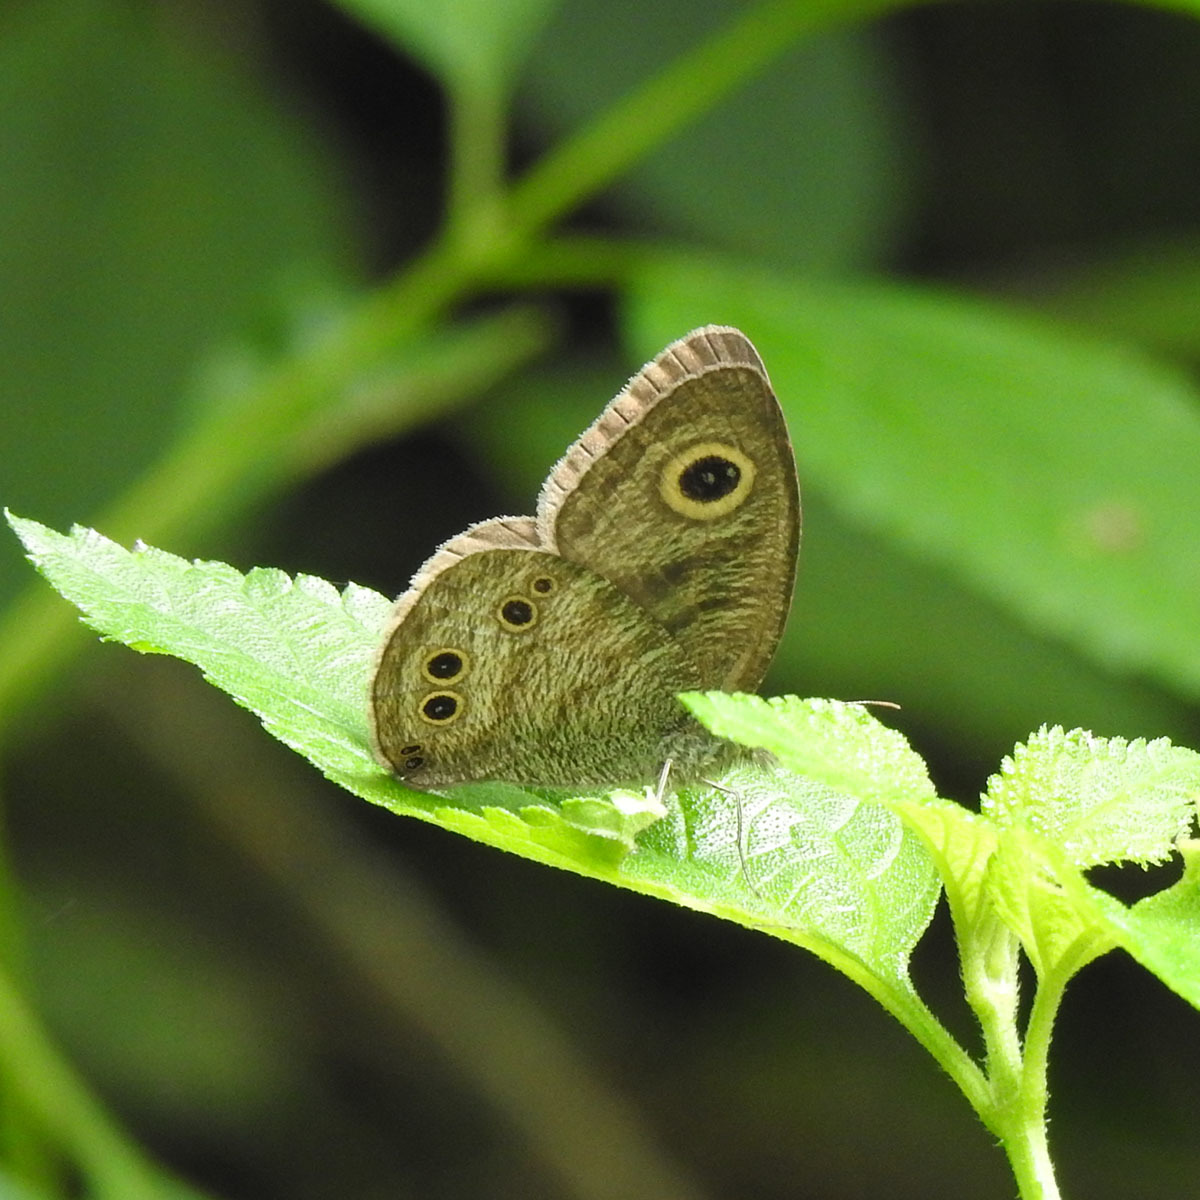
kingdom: Animalia
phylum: Arthropoda
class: Insecta
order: Lepidoptera
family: Nymphalidae
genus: Ypthima
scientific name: Ypthima baldus
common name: Common five-ring
